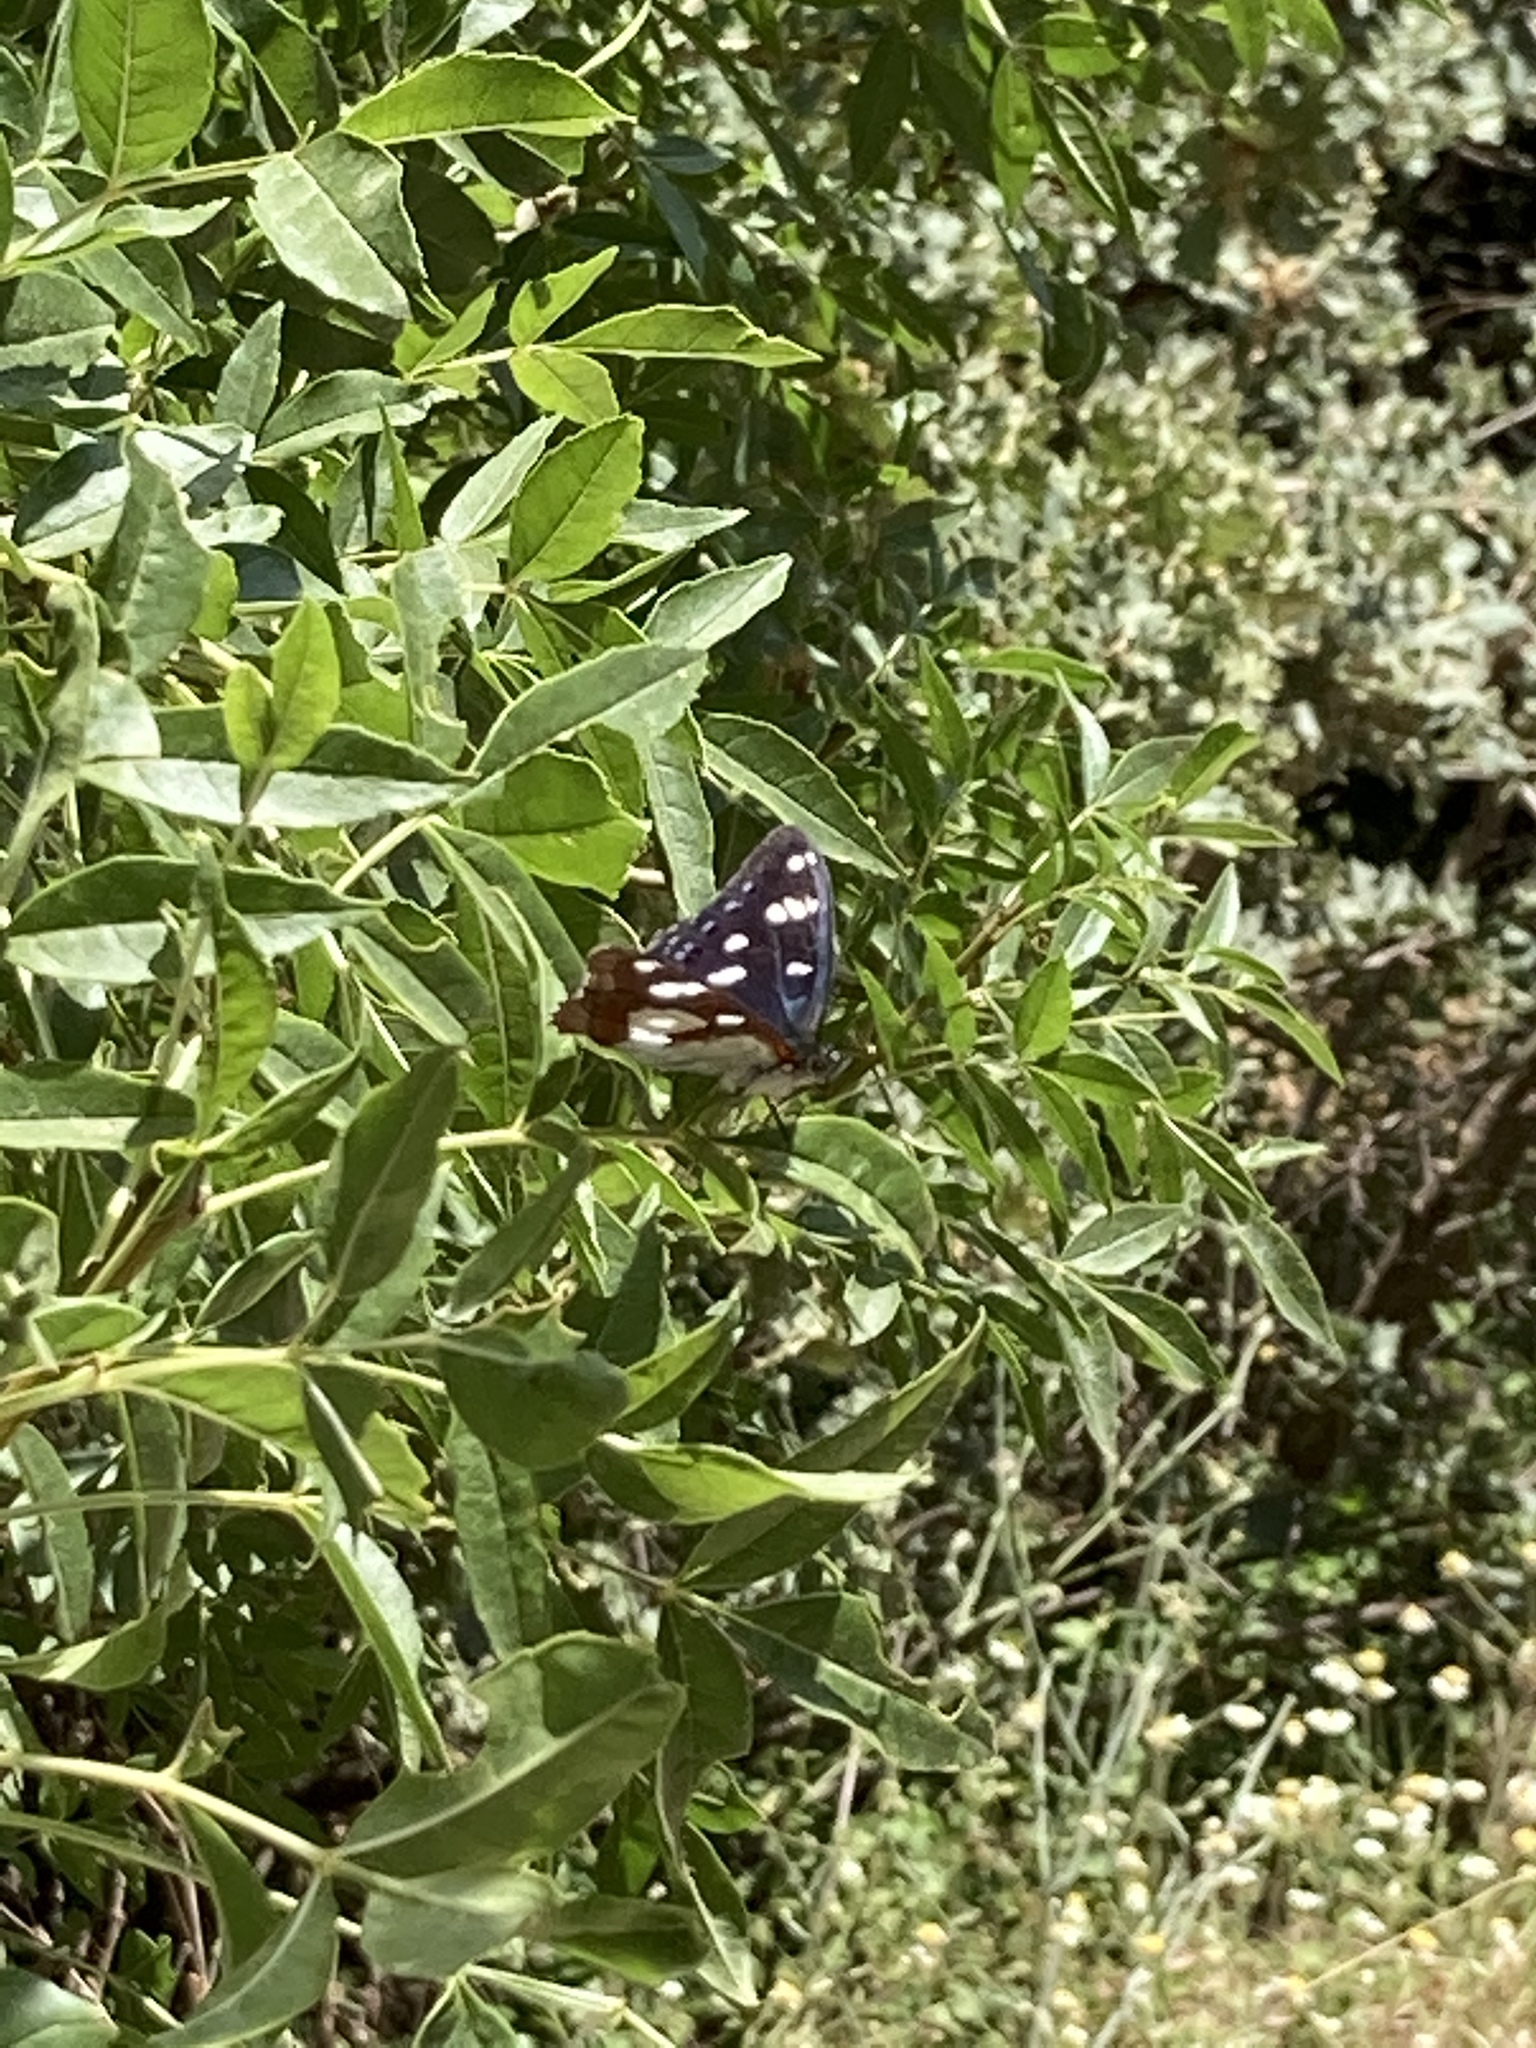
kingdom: Animalia
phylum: Arthropoda
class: Insecta
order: Lepidoptera
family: Nymphalidae
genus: Limenitis
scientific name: Limenitis reducta
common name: Southern white admiral
